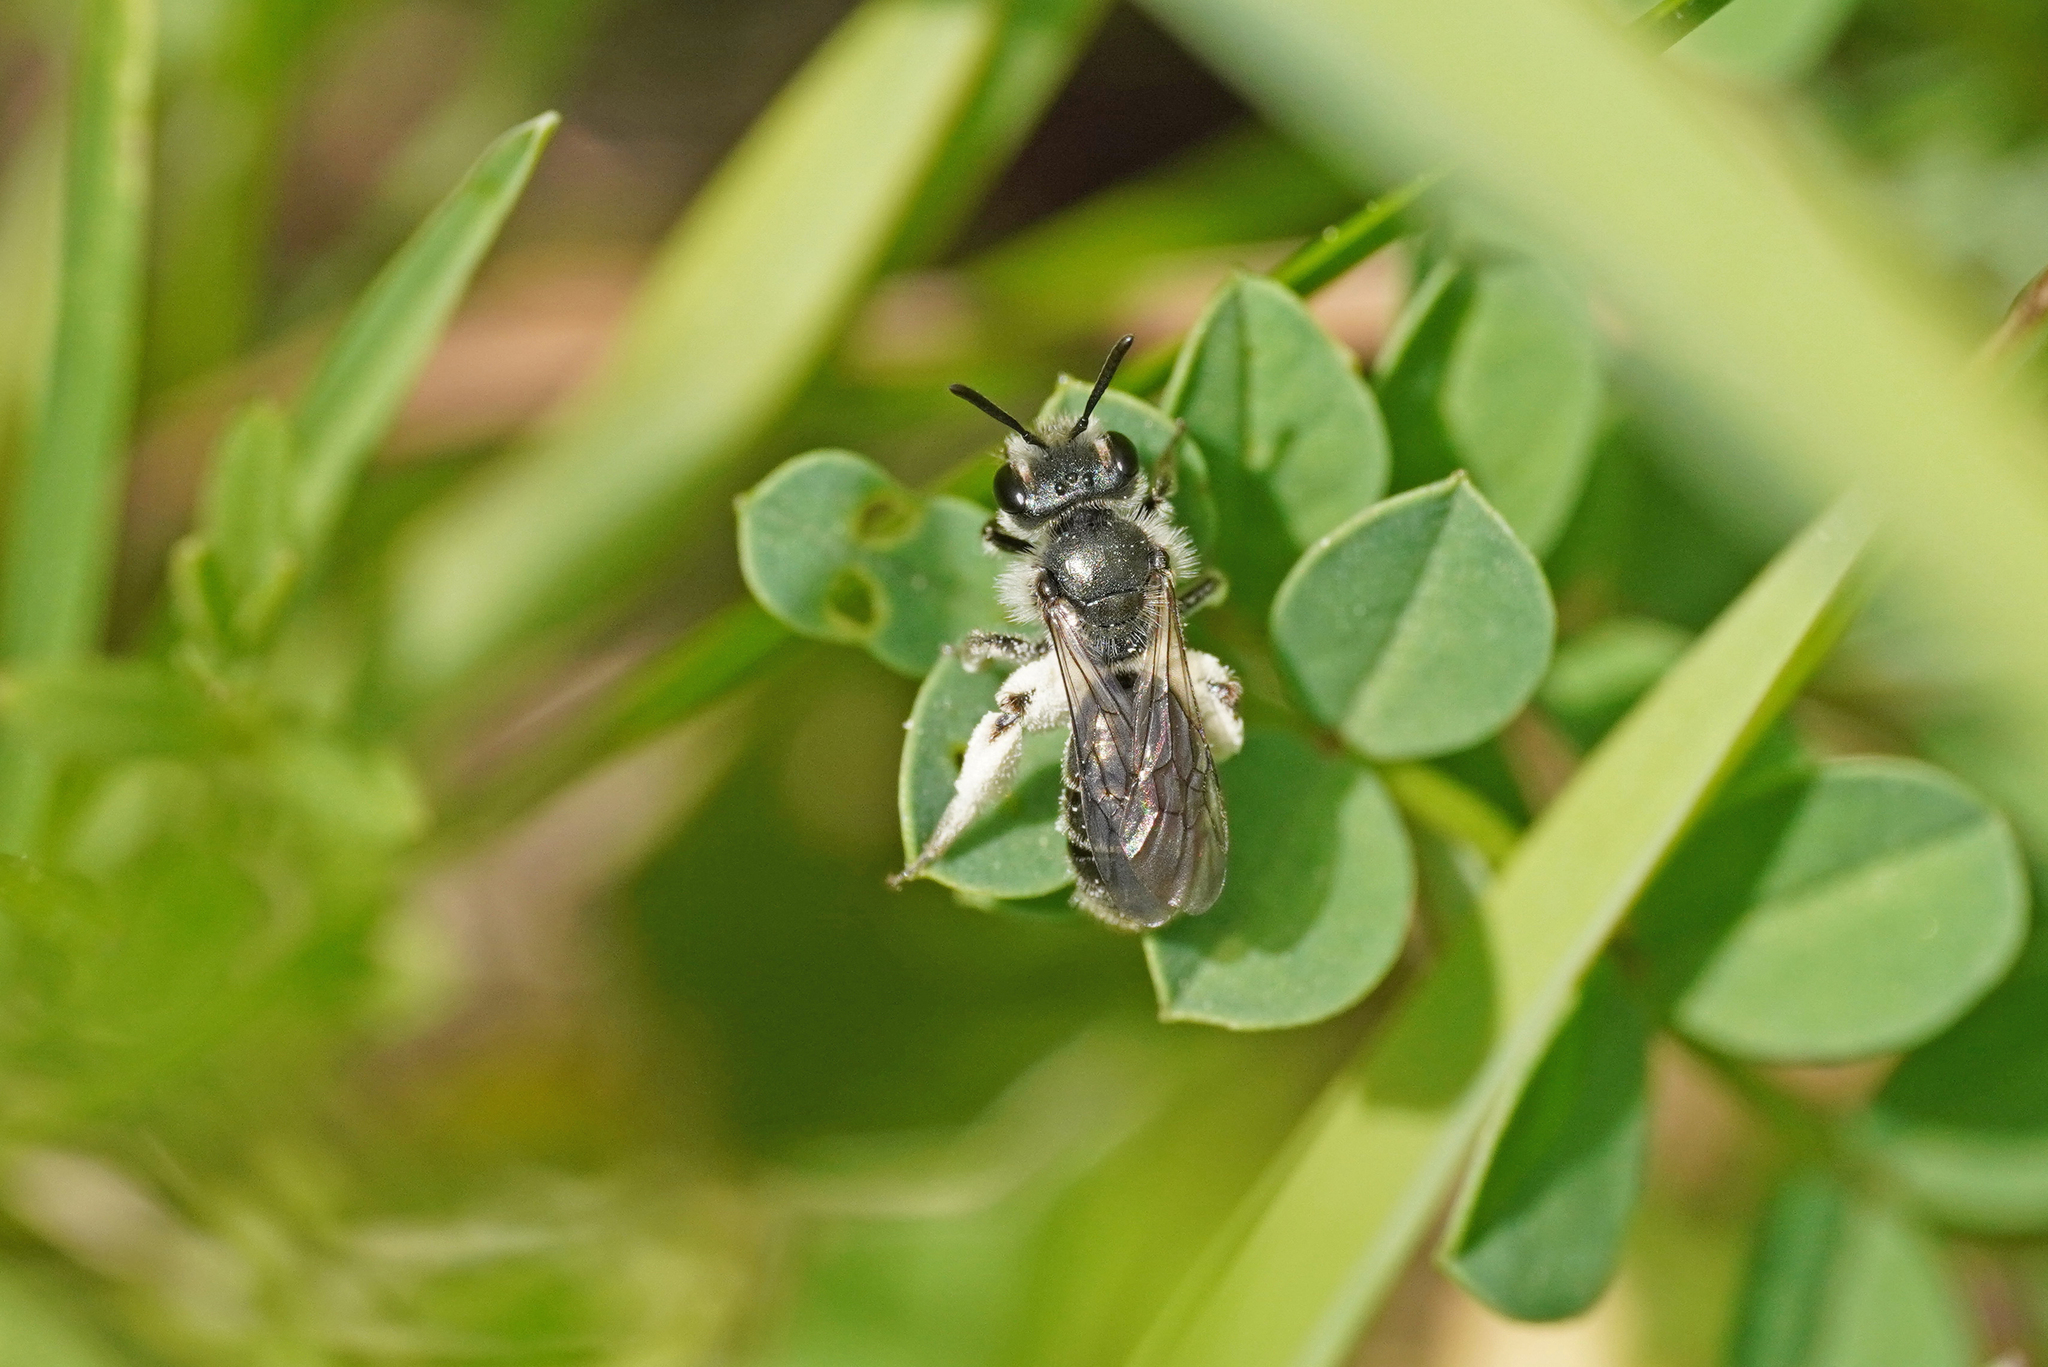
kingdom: Animalia
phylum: Arthropoda
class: Insecta
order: Hymenoptera
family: Andrenidae
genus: Andrena
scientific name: Andrena viridescens
